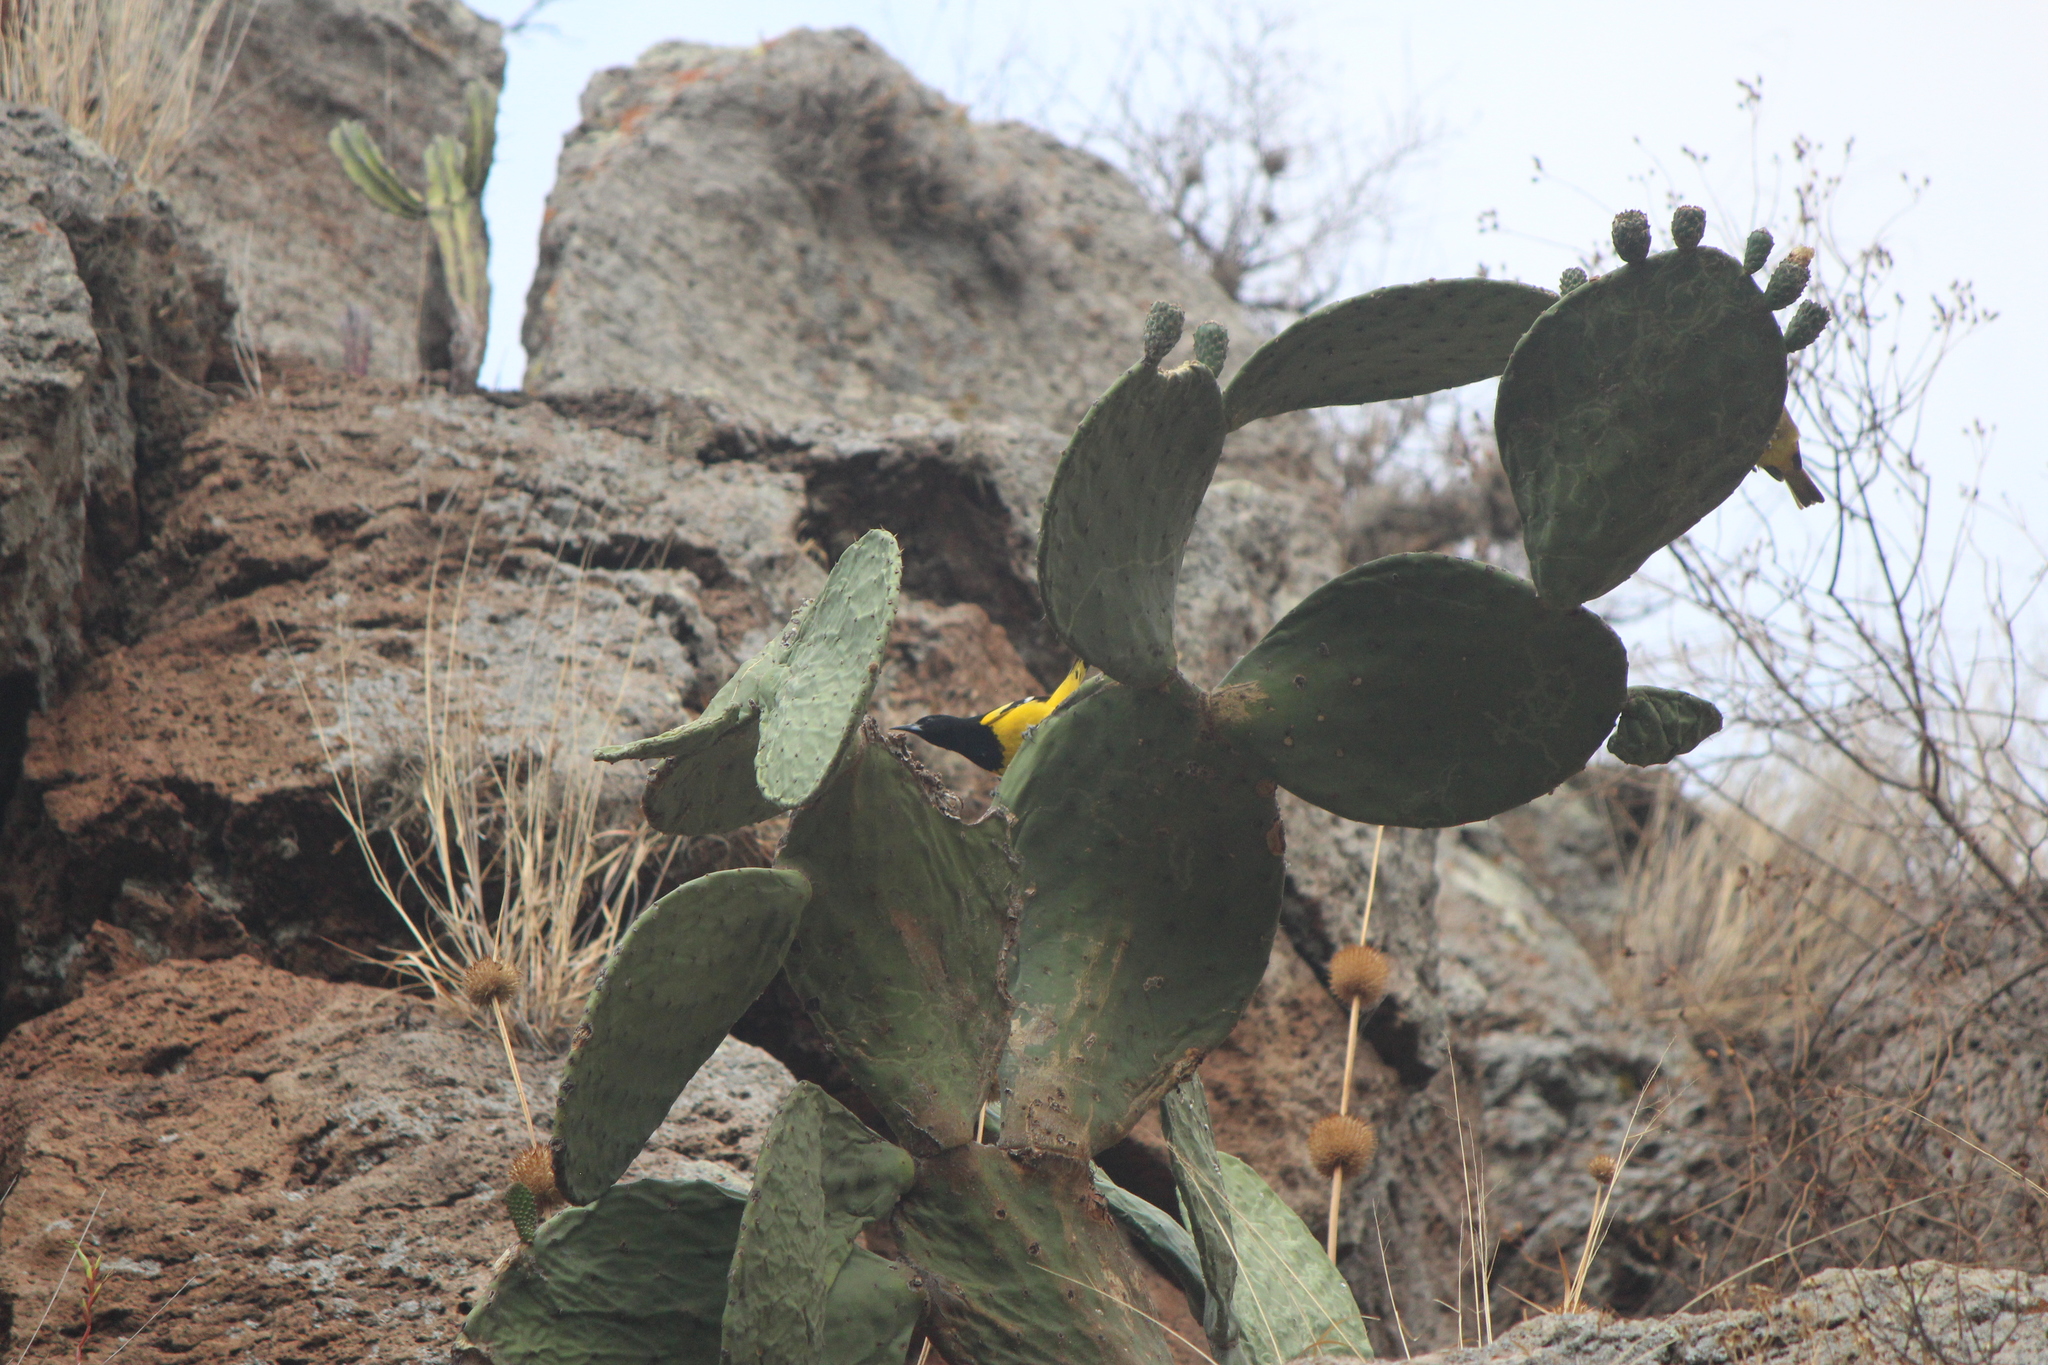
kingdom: Animalia
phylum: Chordata
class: Aves
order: Passeriformes
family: Icteridae
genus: Icterus
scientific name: Icterus parisorum
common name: Scott's oriole
